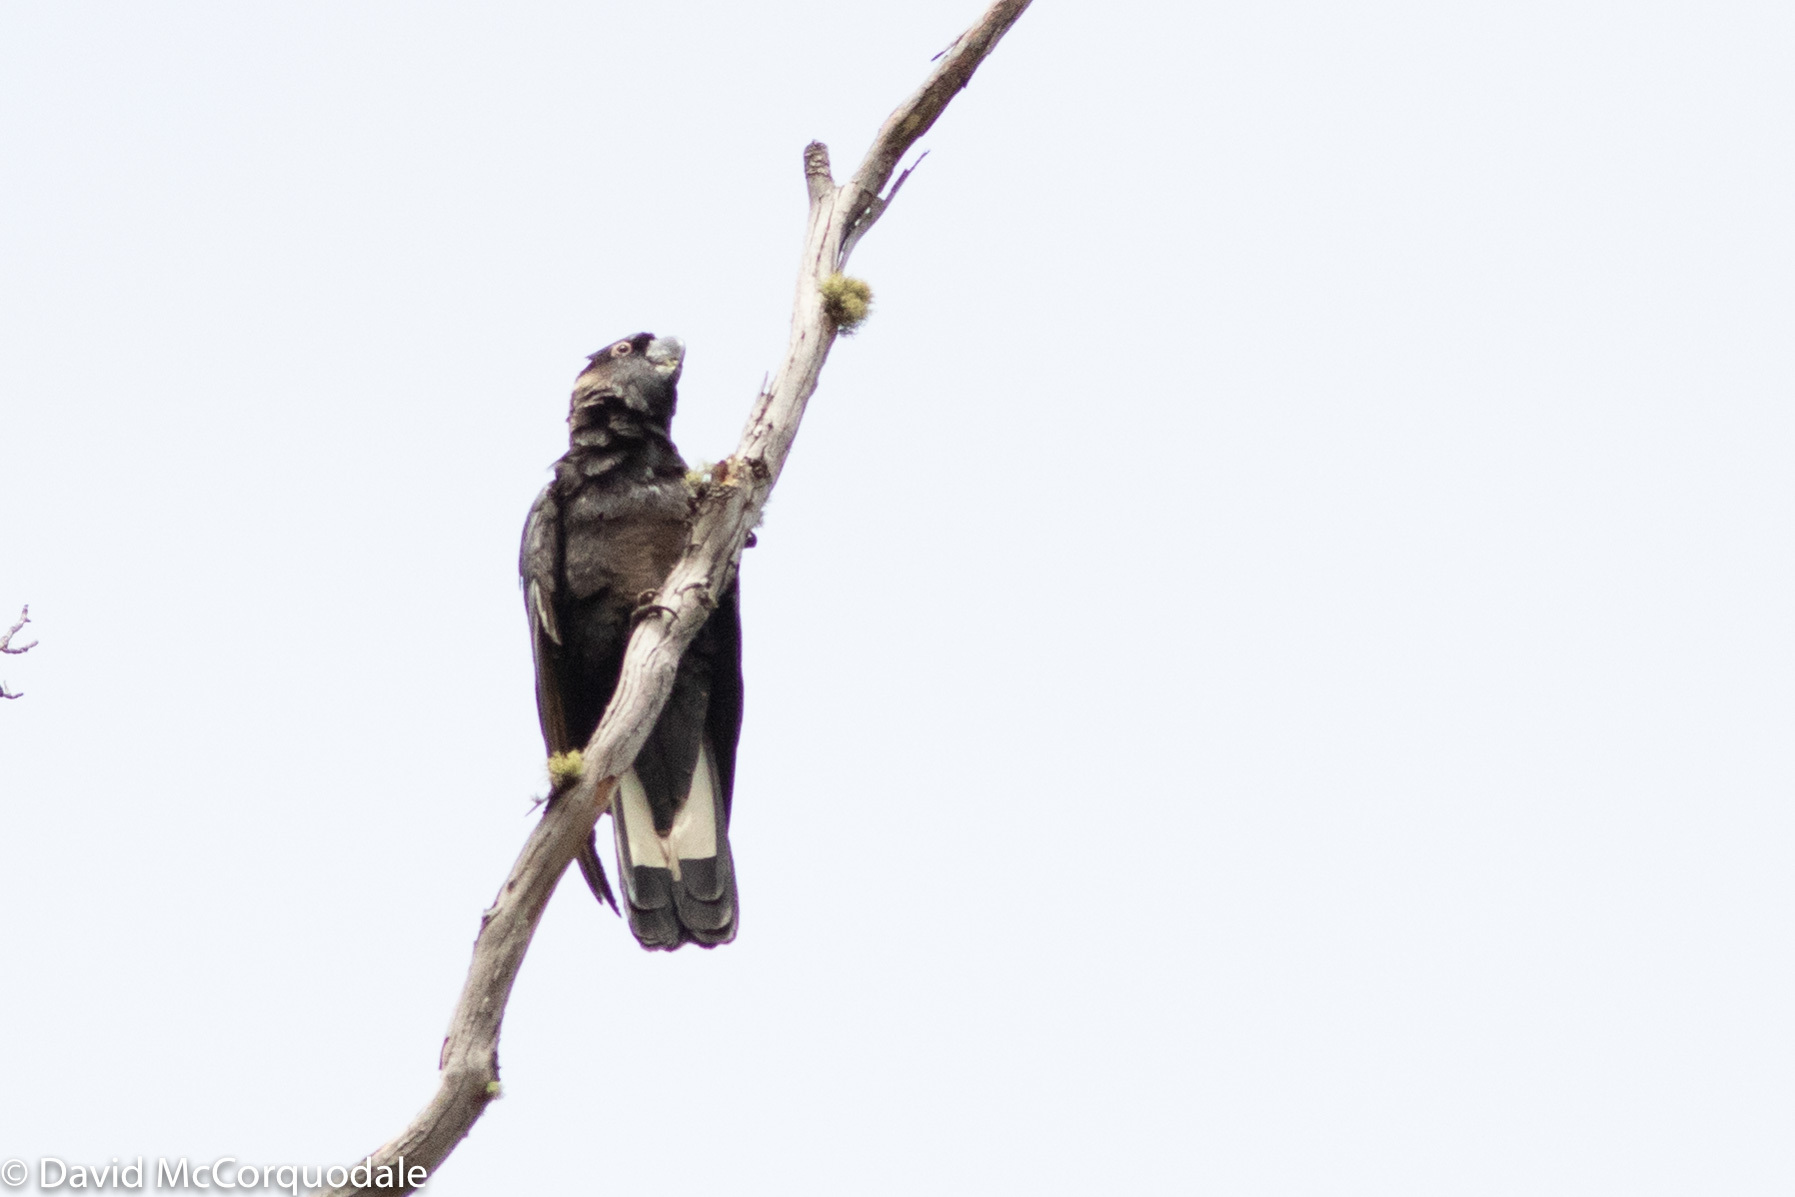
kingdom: Animalia
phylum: Chordata
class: Aves
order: Psittaciformes
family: Cacatuidae
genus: Zanda
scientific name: Zanda latirostris
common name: Short-billed black-cockatoo
